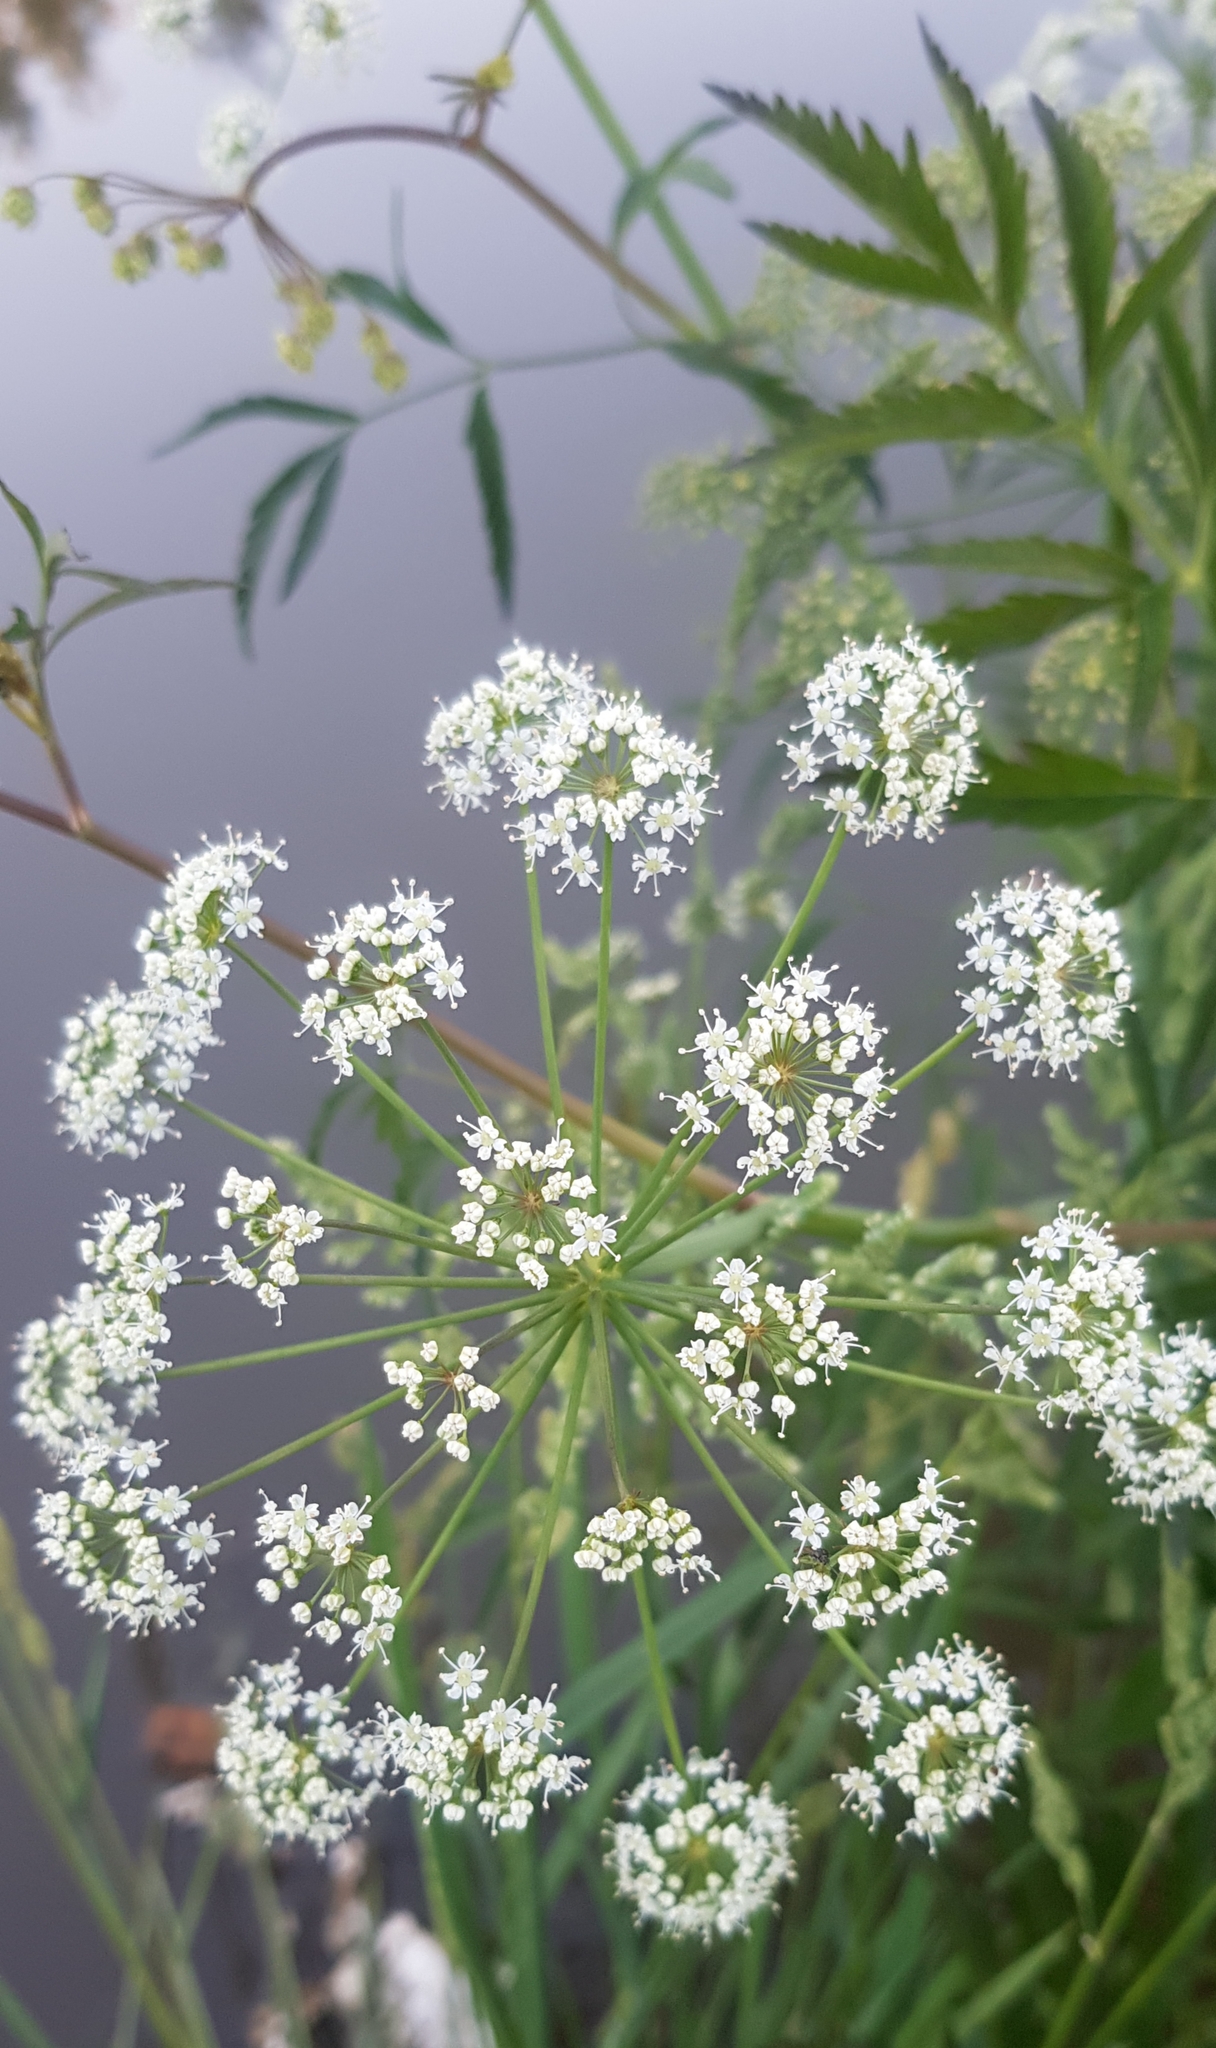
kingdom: Plantae
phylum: Tracheophyta
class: Magnoliopsida
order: Apiales
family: Apiaceae
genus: Cicuta
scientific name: Cicuta virosa
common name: Cowbane
